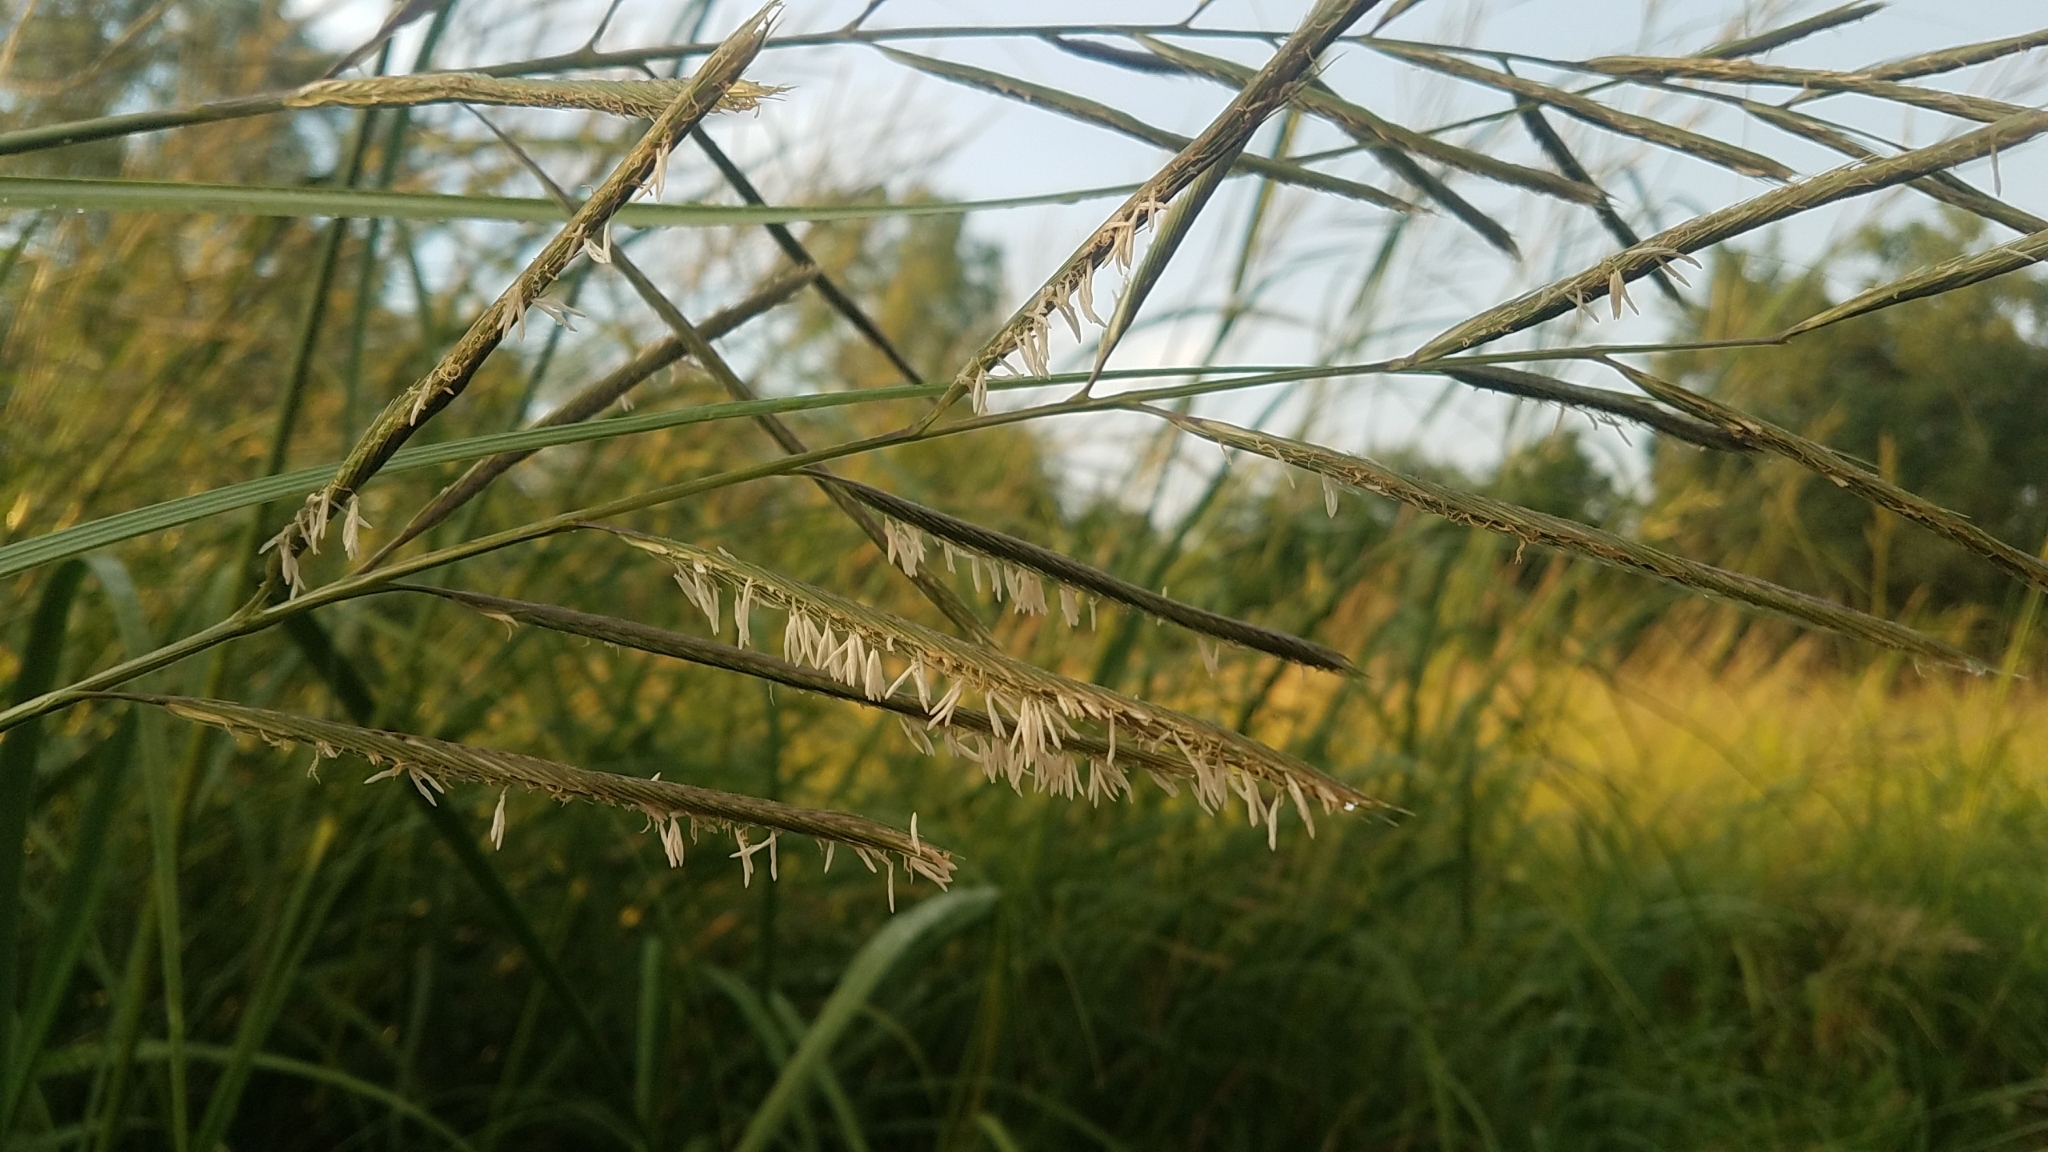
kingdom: Plantae
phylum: Tracheophyta
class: Liliopsida
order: Poales
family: Poaceae
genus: Sporobolus
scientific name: Sporobolus michauxianus
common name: Freshwater cordgrass
